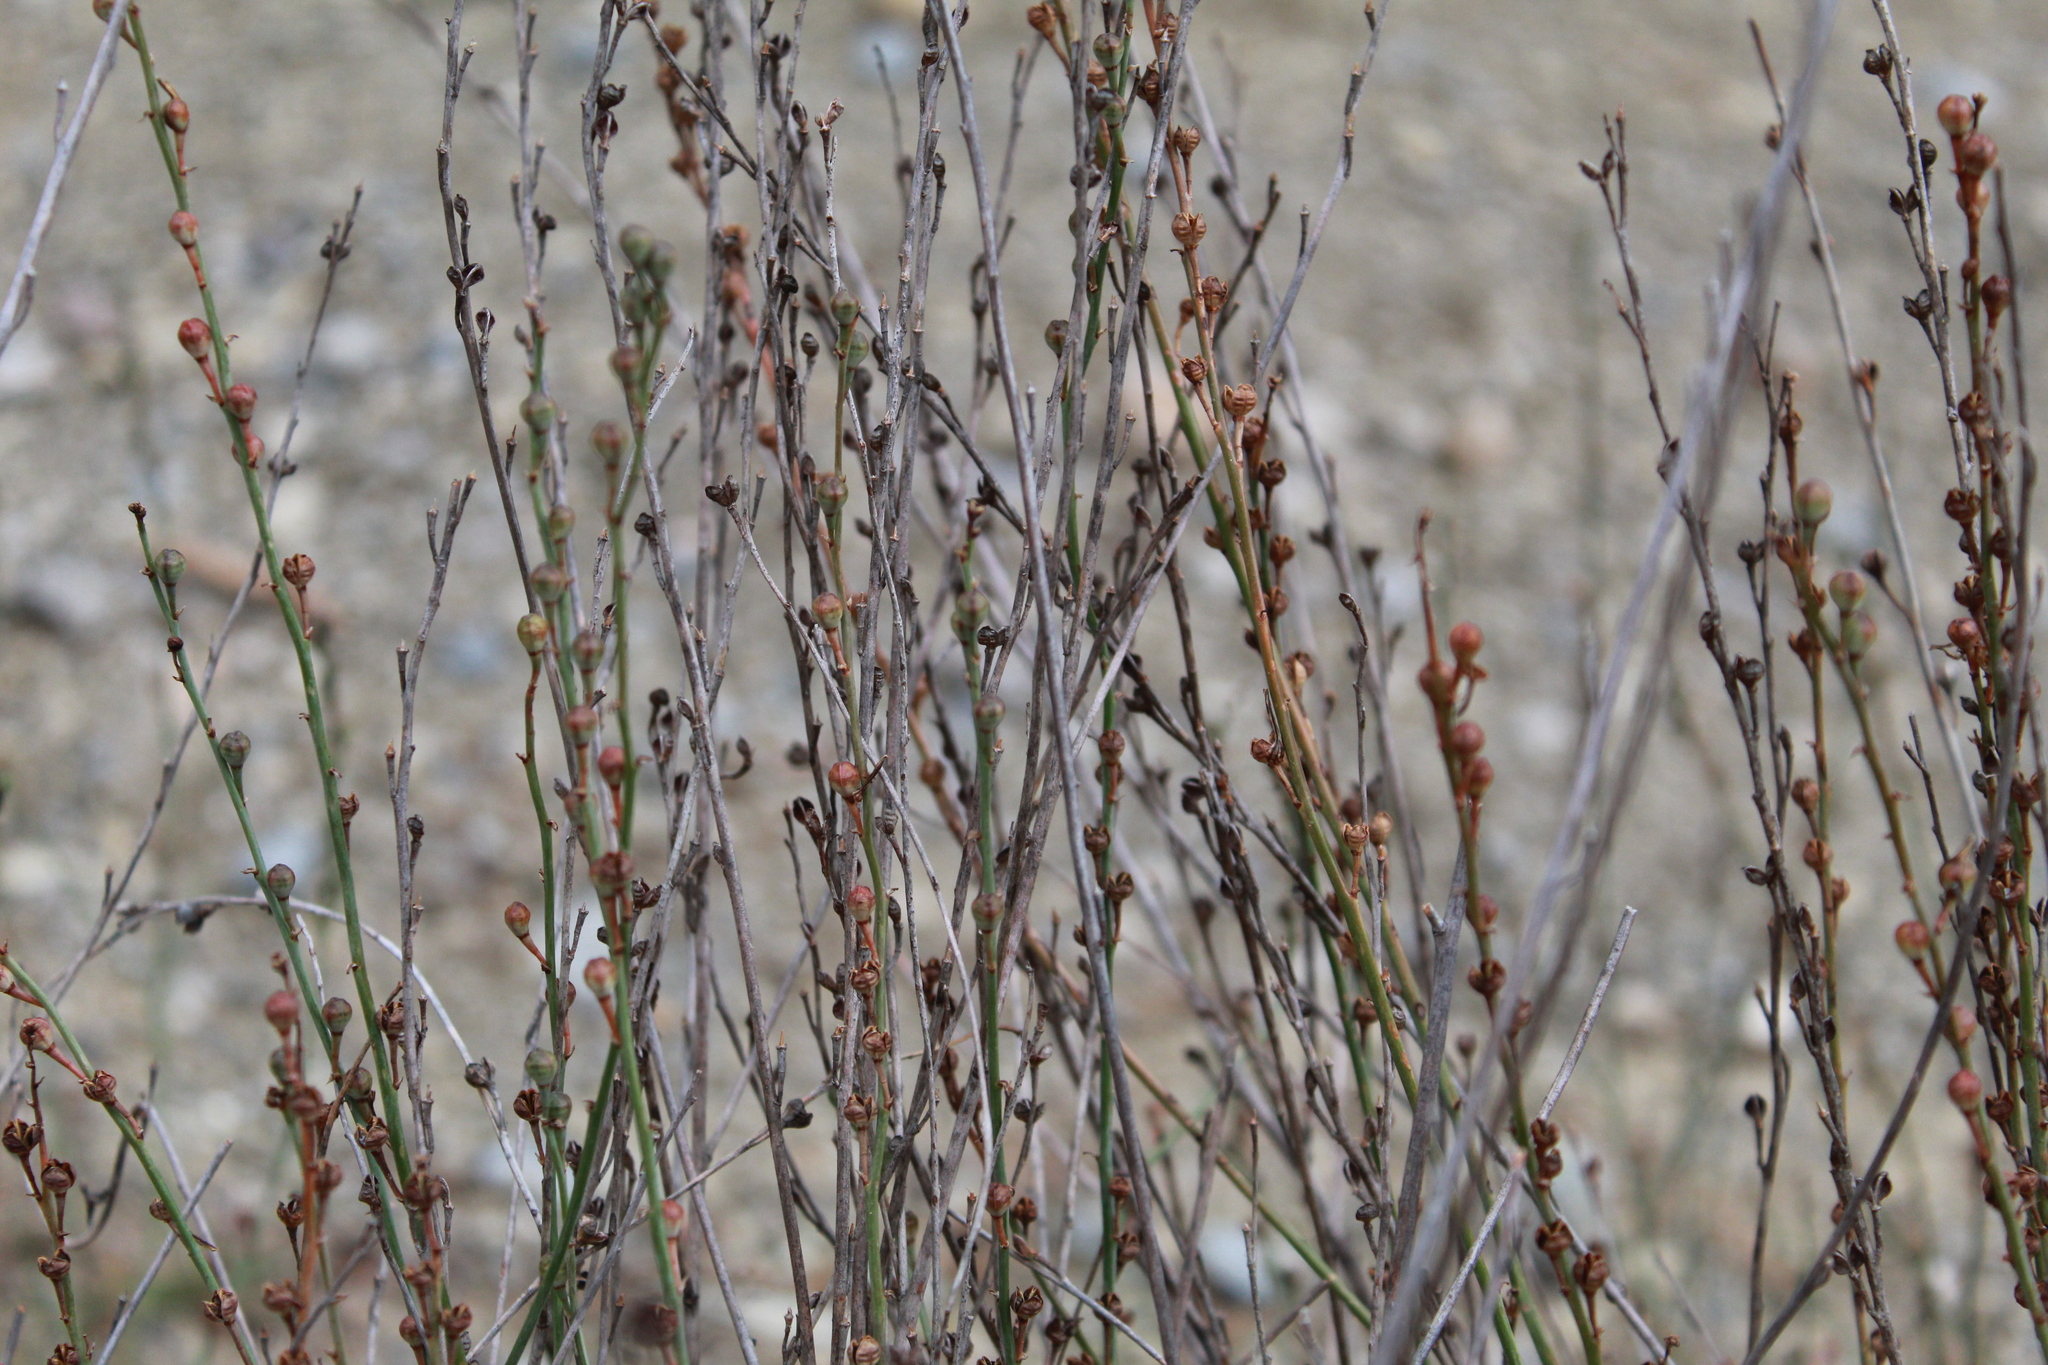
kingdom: Plantae
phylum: Tracheophyta
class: Liliopsida
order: Asparagales
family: Asphodelaceae
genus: Asphodelus
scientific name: Asphodelus fistulosus
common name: Onionweed
